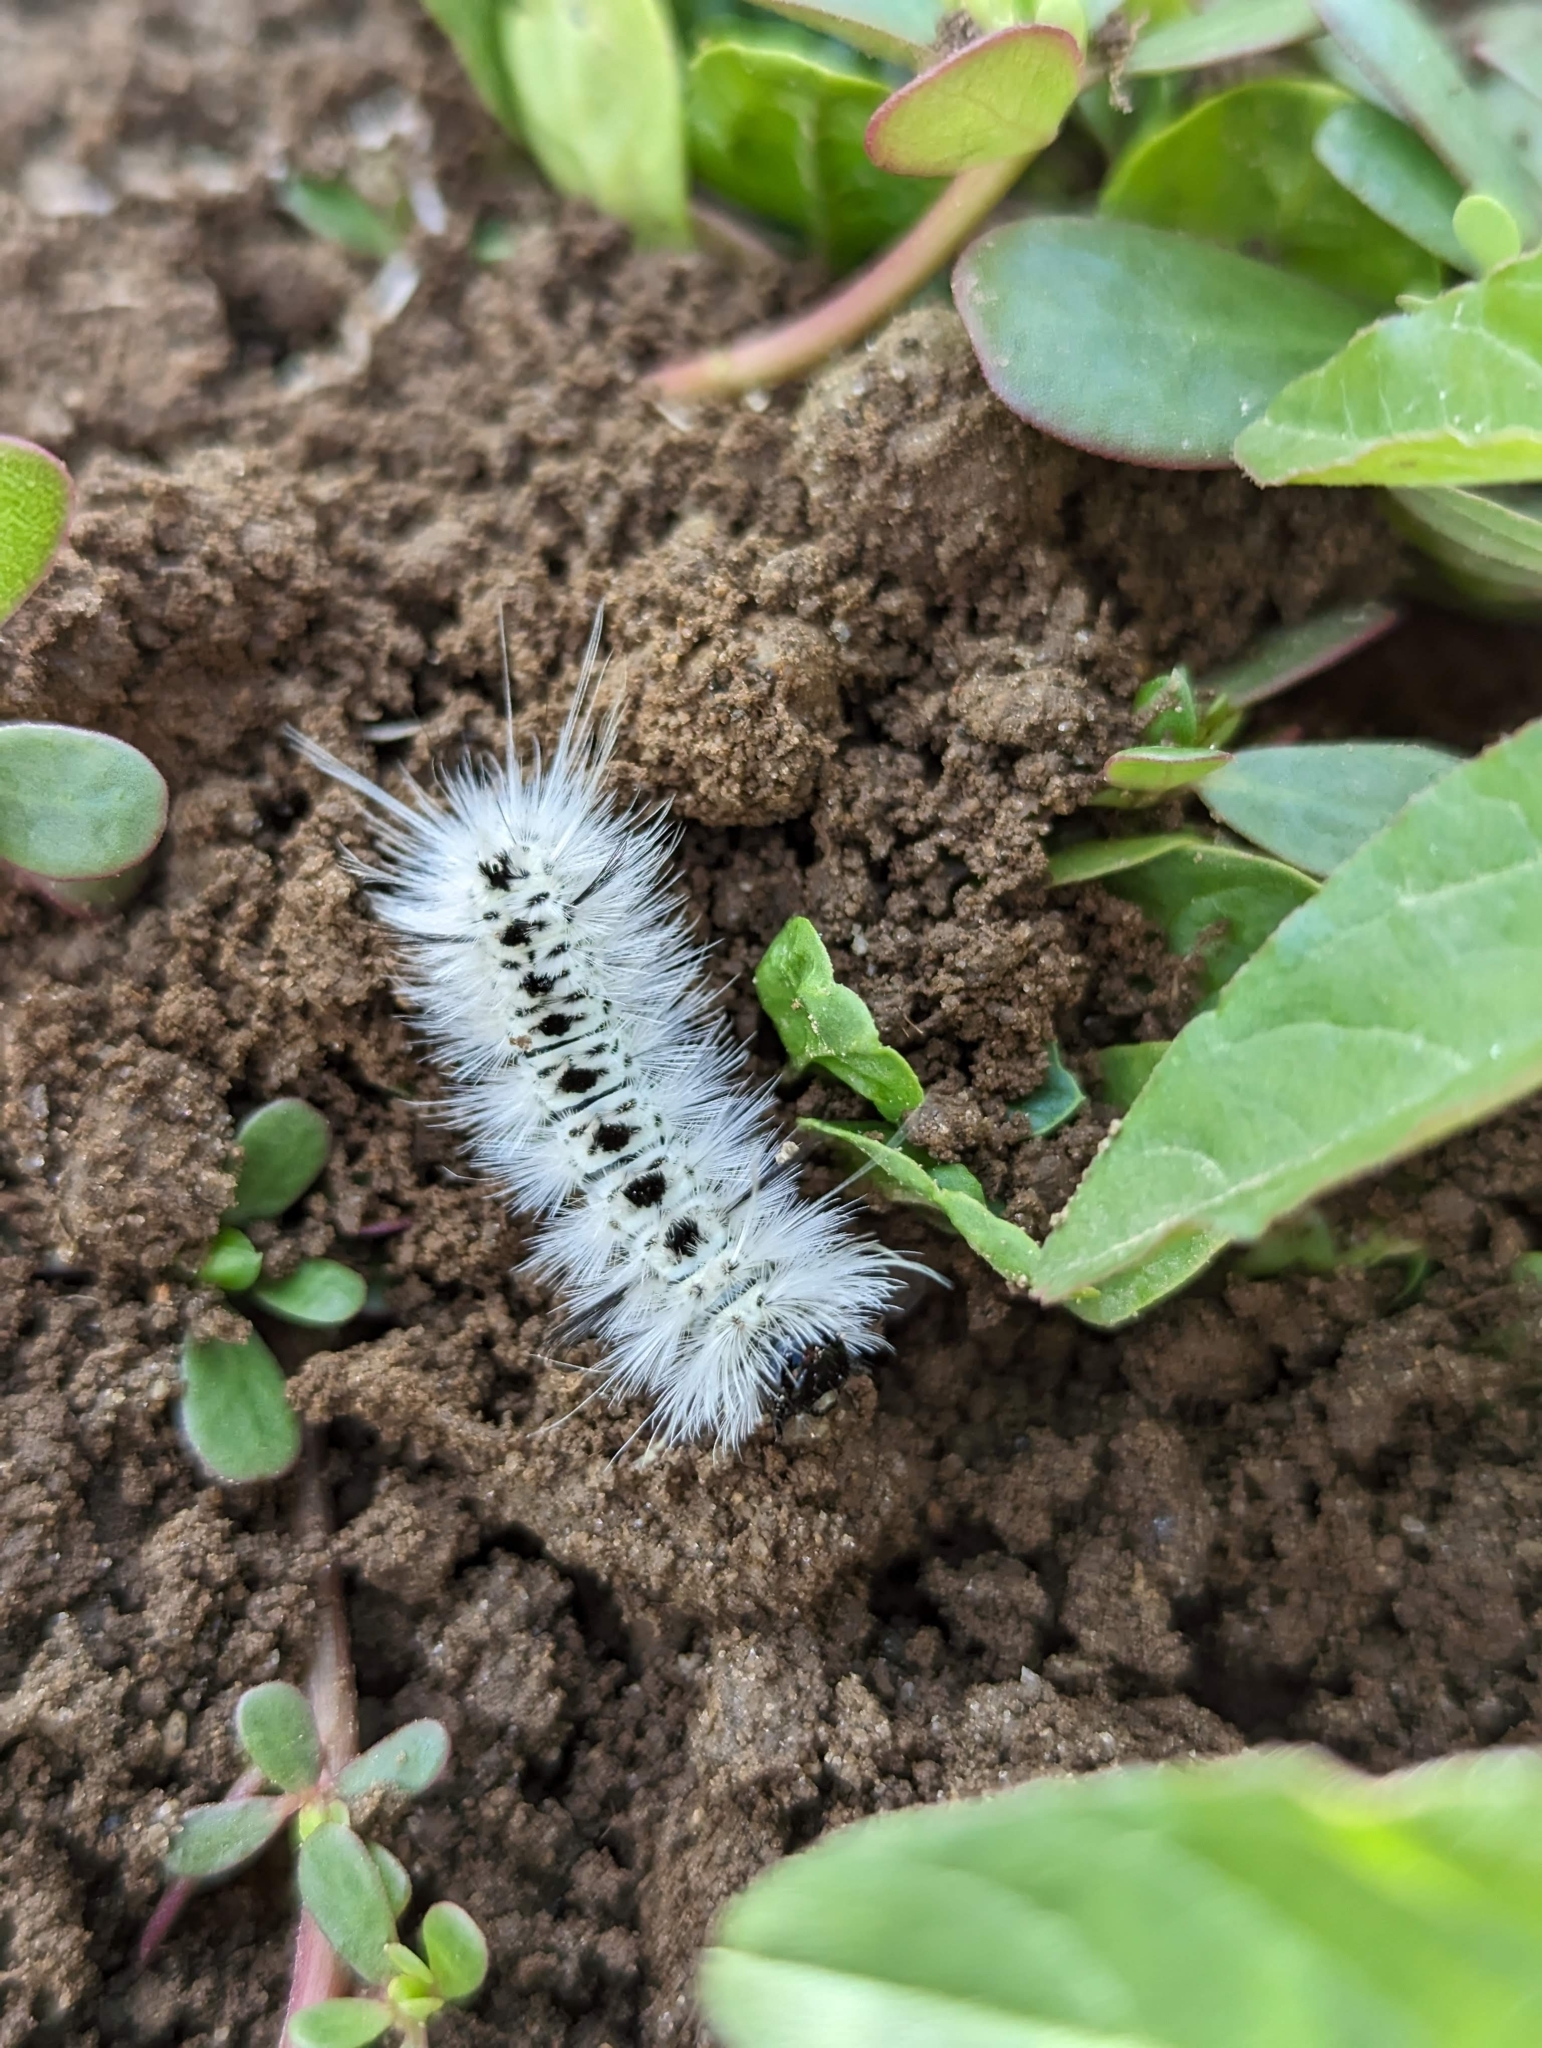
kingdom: Animalia
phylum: Arthropoda
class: Insecta
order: Lepidoptera
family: Erebidae
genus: Lophocampa
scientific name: Lophocampa caryae
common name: Hickory tussock moth
